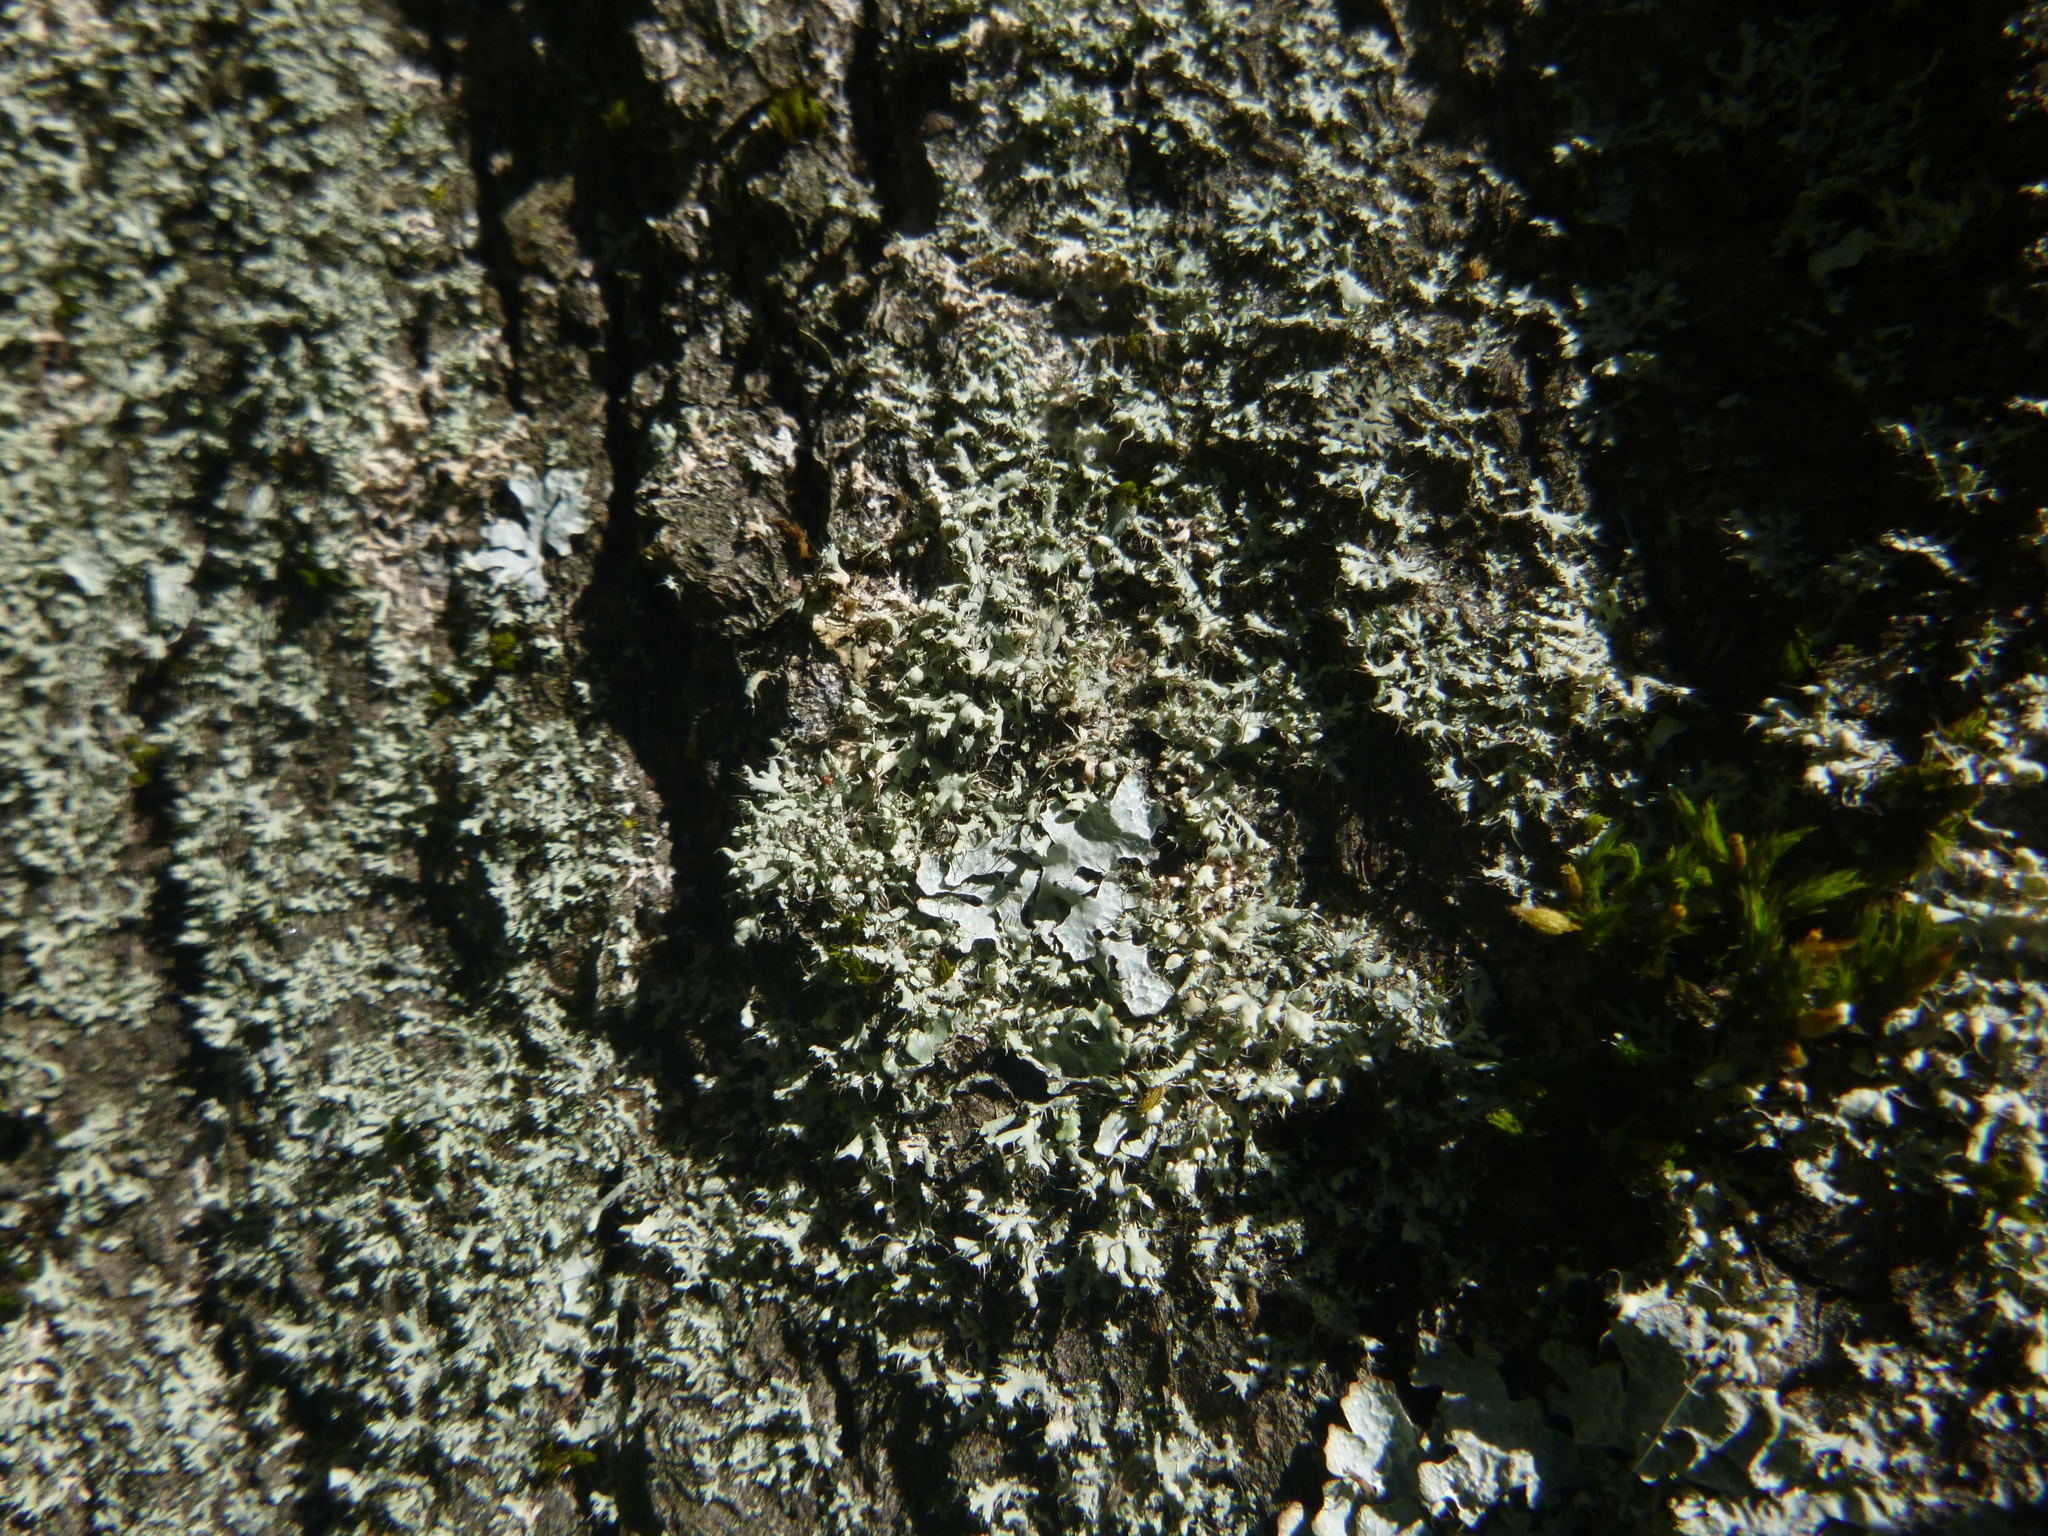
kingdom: Fungi
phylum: Ascomycota
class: Lecanoromycetes
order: Lecanorales
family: Parmeliaceae
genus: Parmelia
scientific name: Parmelia sulcata
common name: Netted shield lichen
